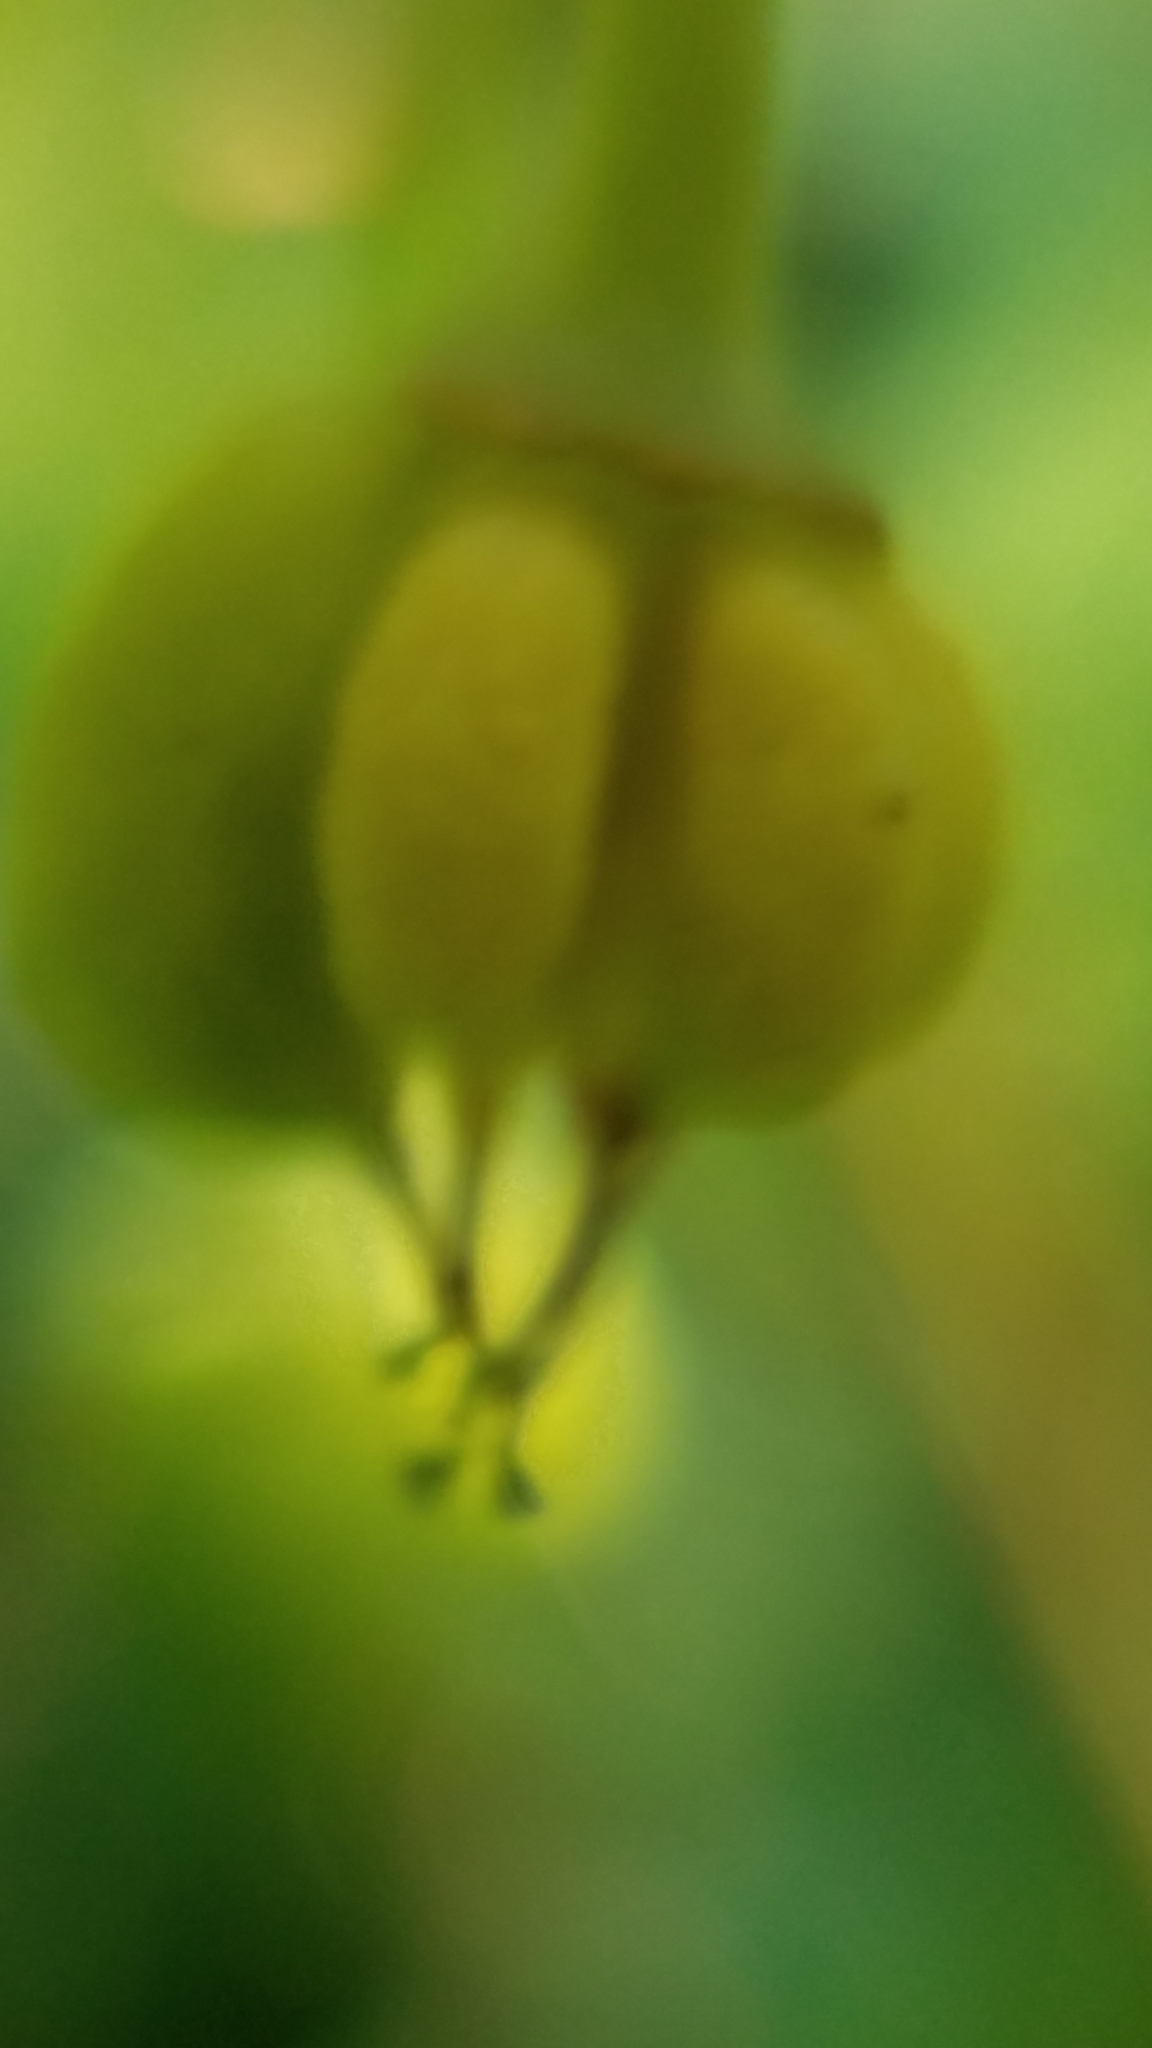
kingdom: Plantae
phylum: Tracheophyta
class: Magnoliopsida
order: Rosales
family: Rosaceae
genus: Oemleria
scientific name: Oemleria cerasiformis
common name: Osoberry
